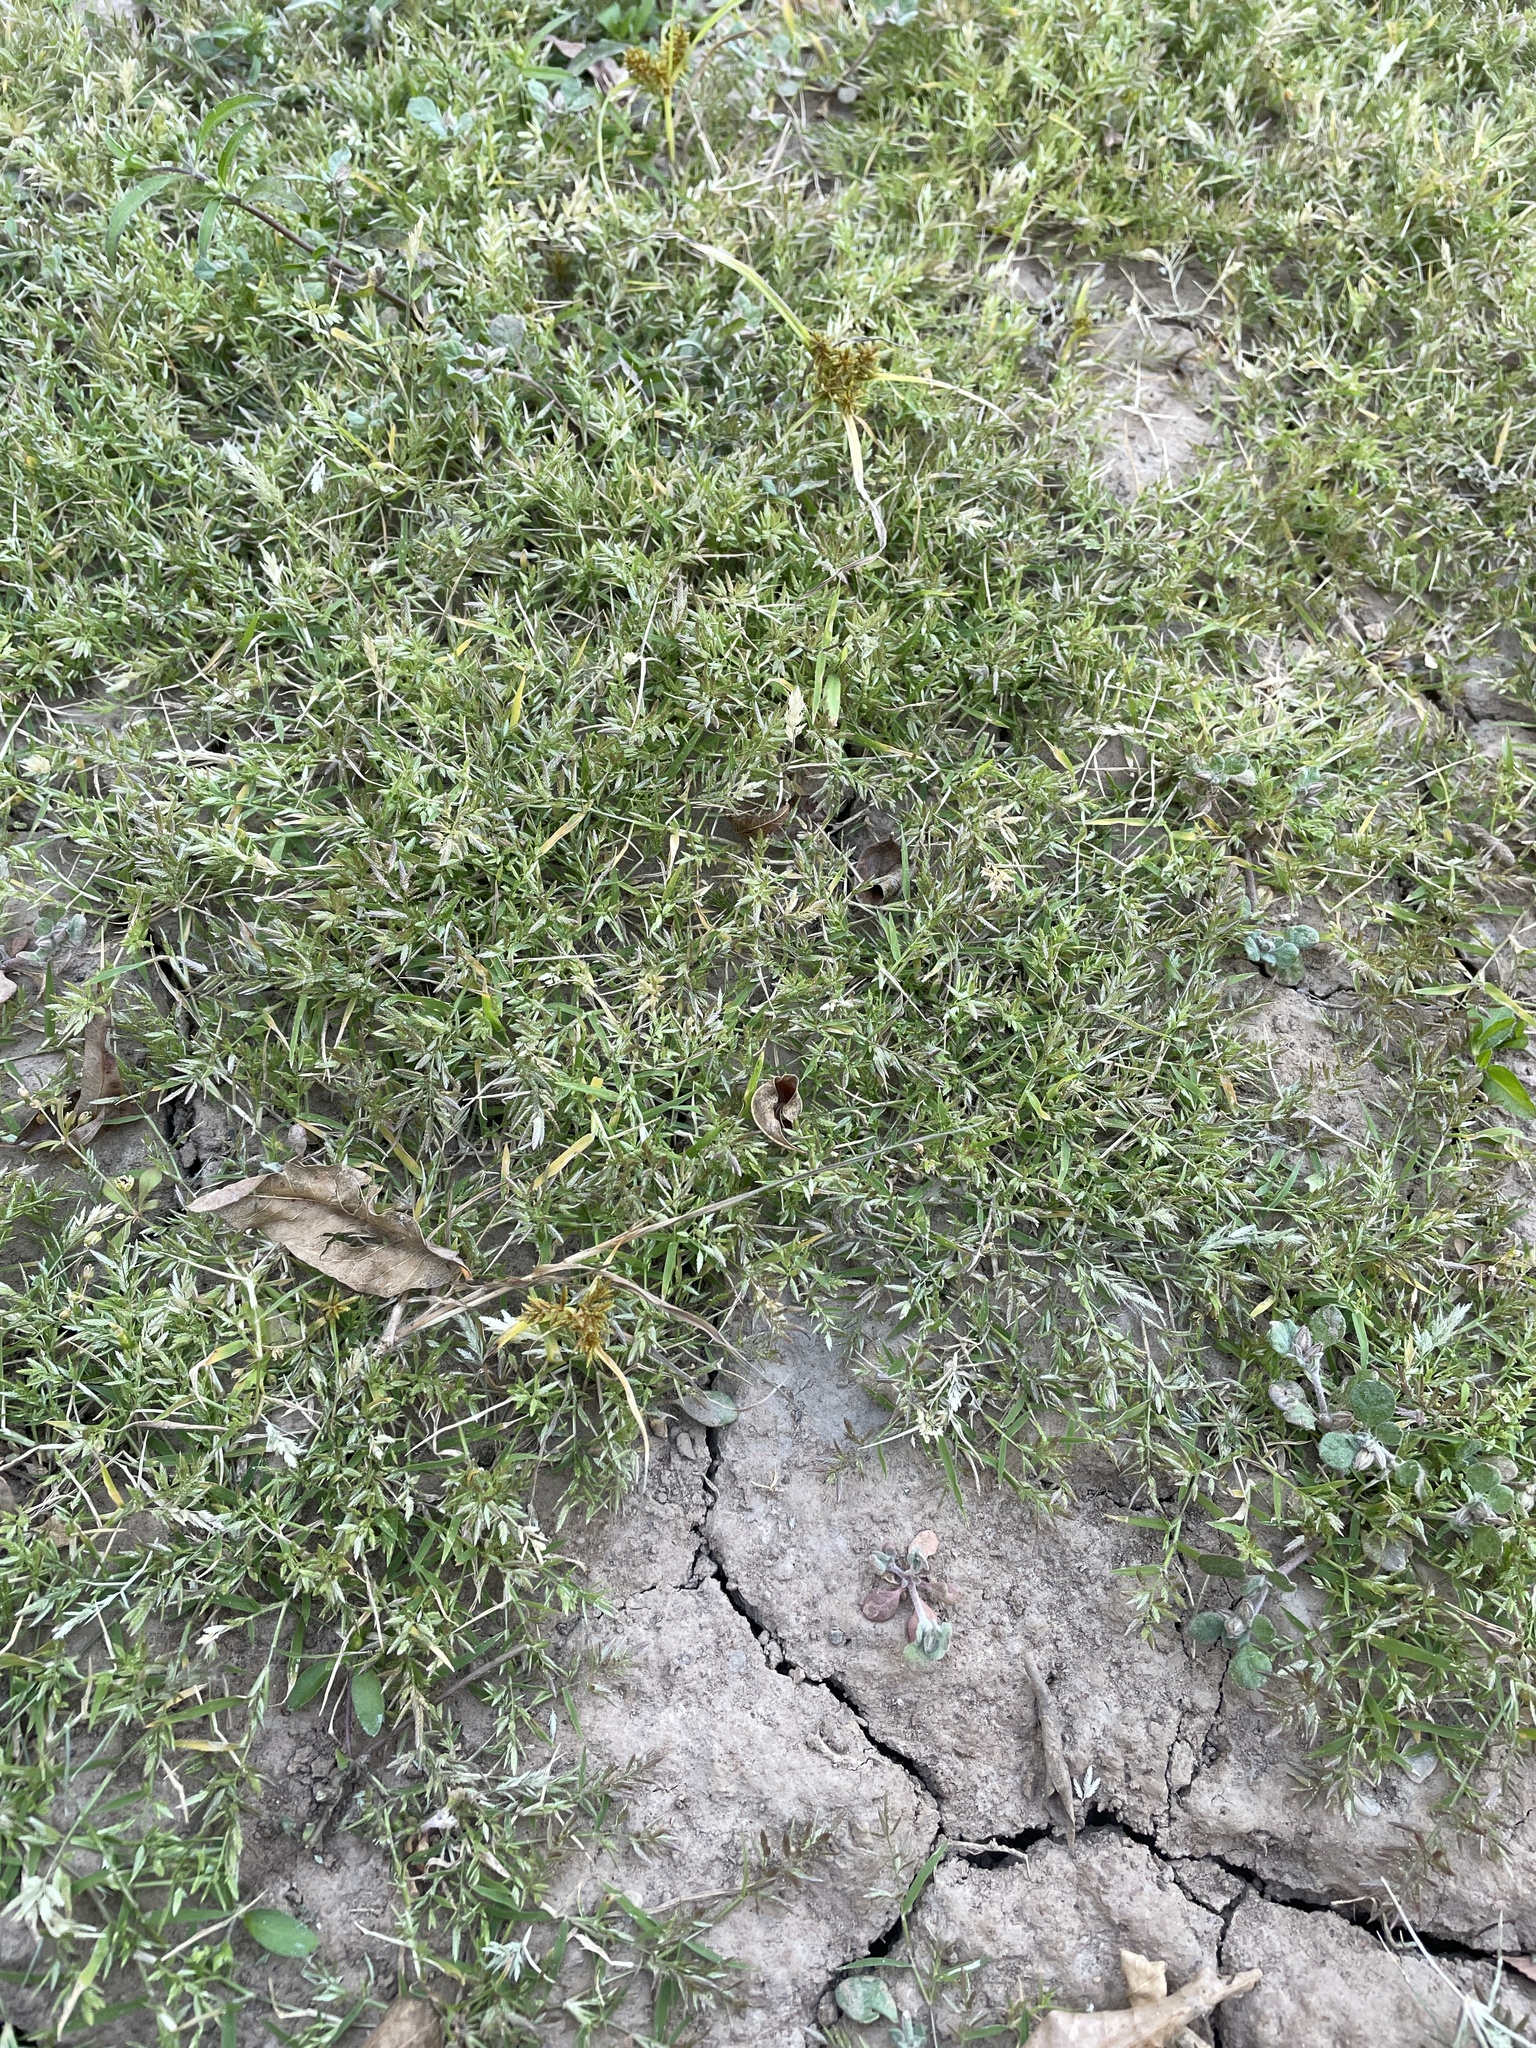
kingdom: Plantae
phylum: Tracheophyta
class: Liliopsida
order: Poales
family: Poaceae
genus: Eragrostis
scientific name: Eragrostis reptans
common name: Creeping love grass
